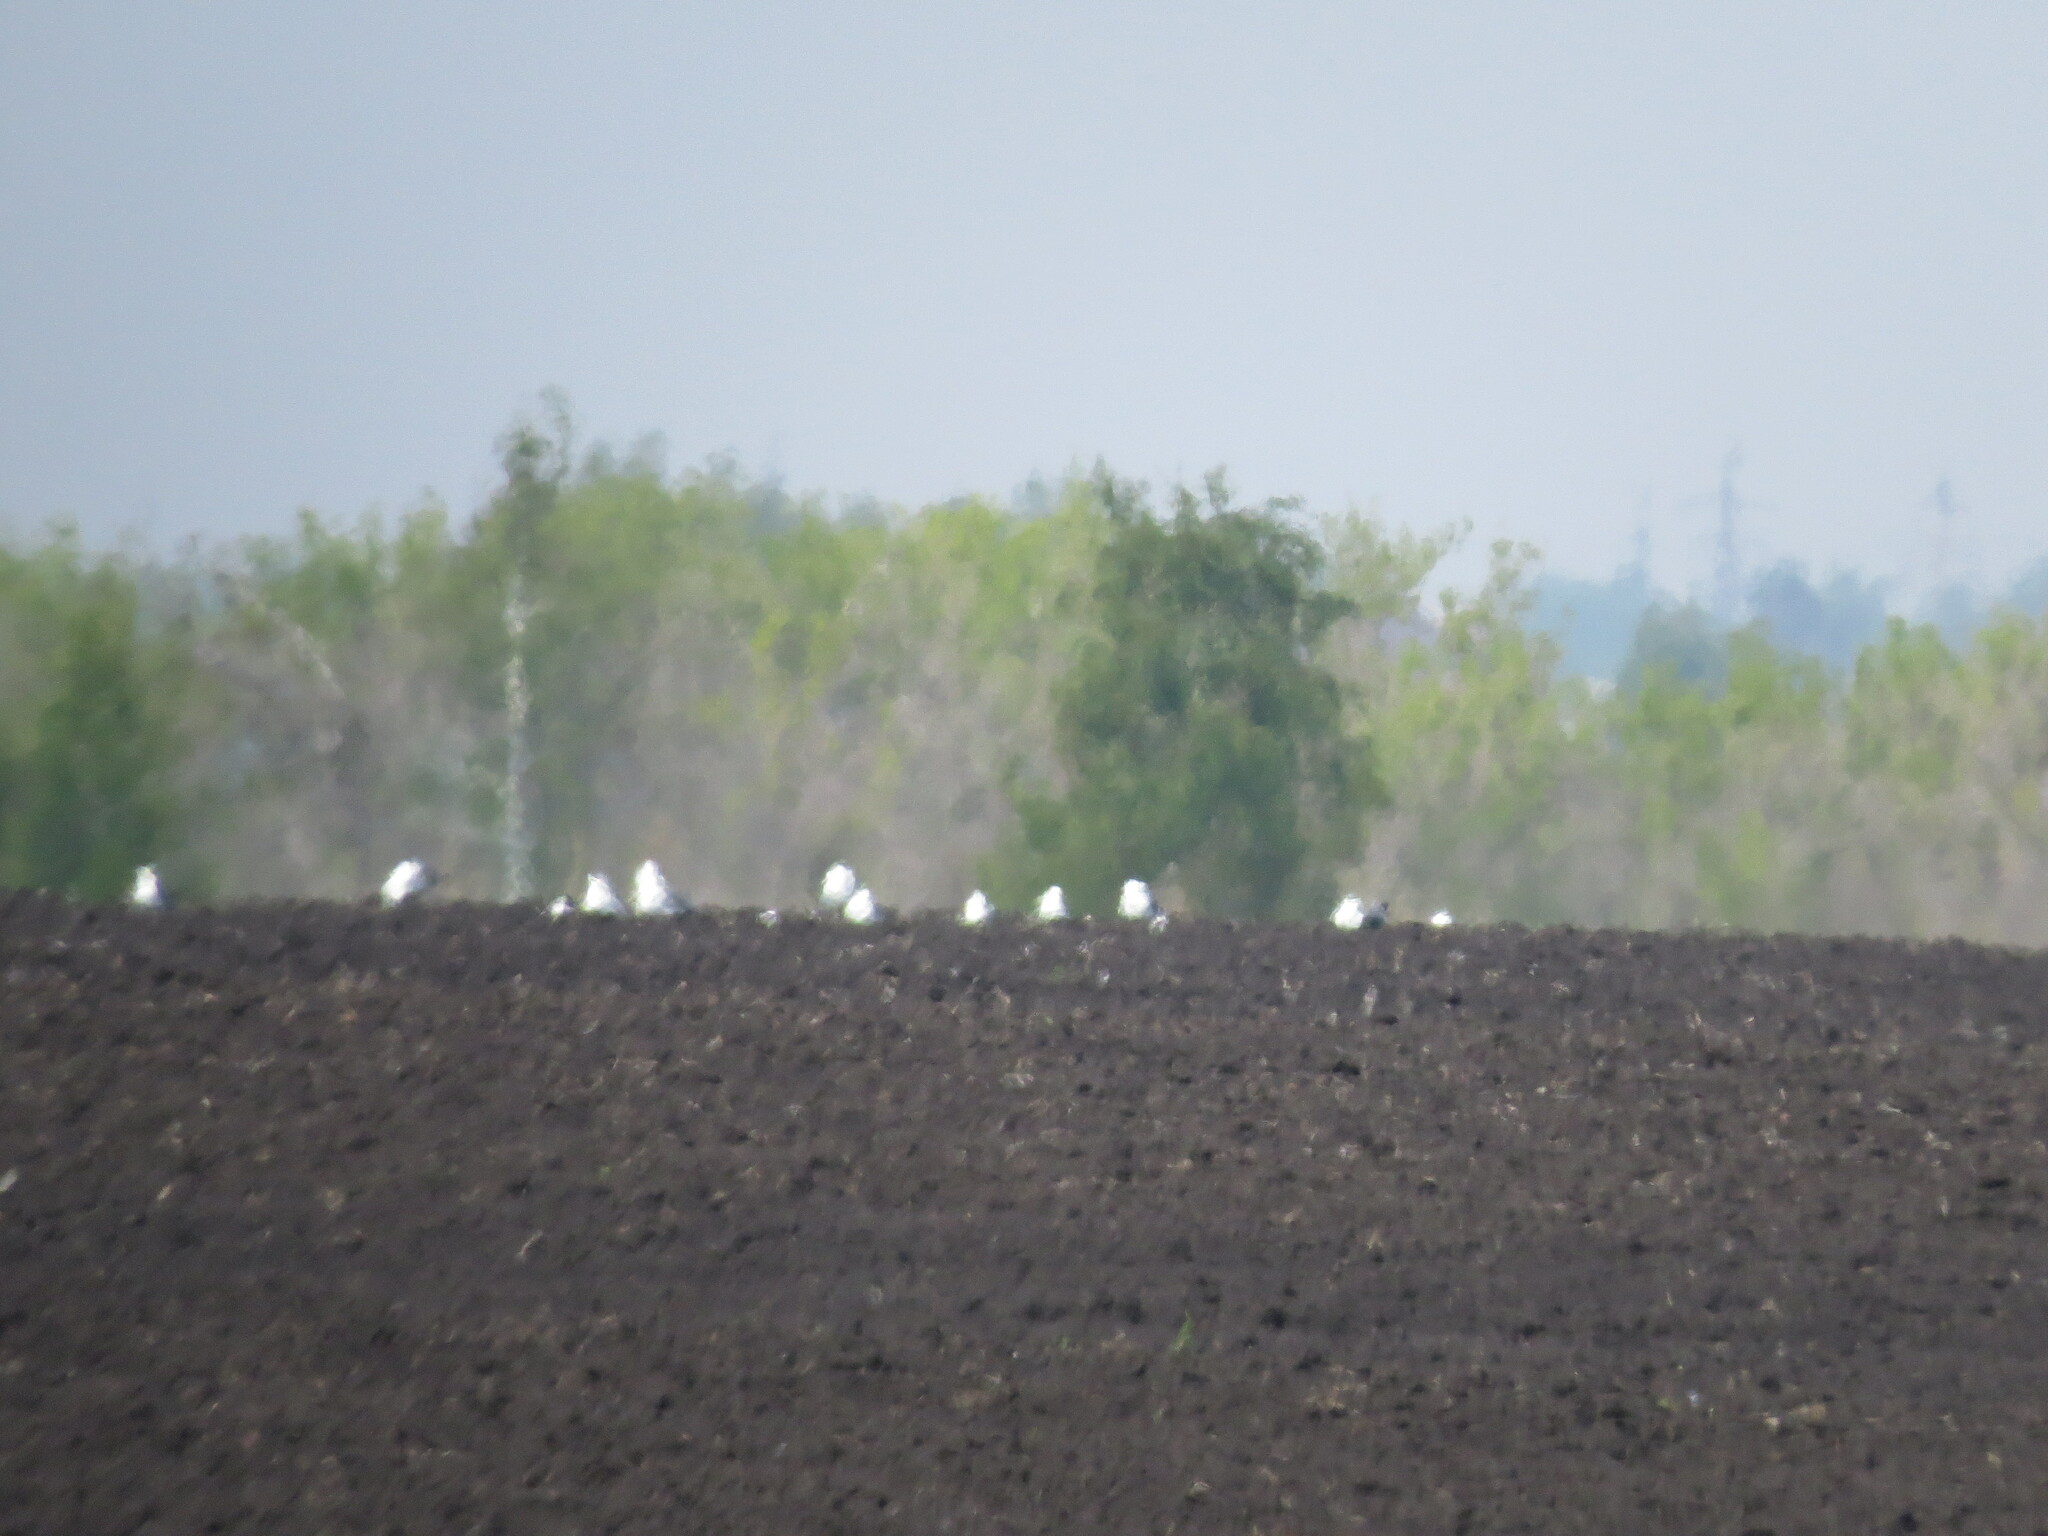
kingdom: Animalia
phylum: Chordata
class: Aves
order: Charadriiformes
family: Laridae
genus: Larus
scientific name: Larus
